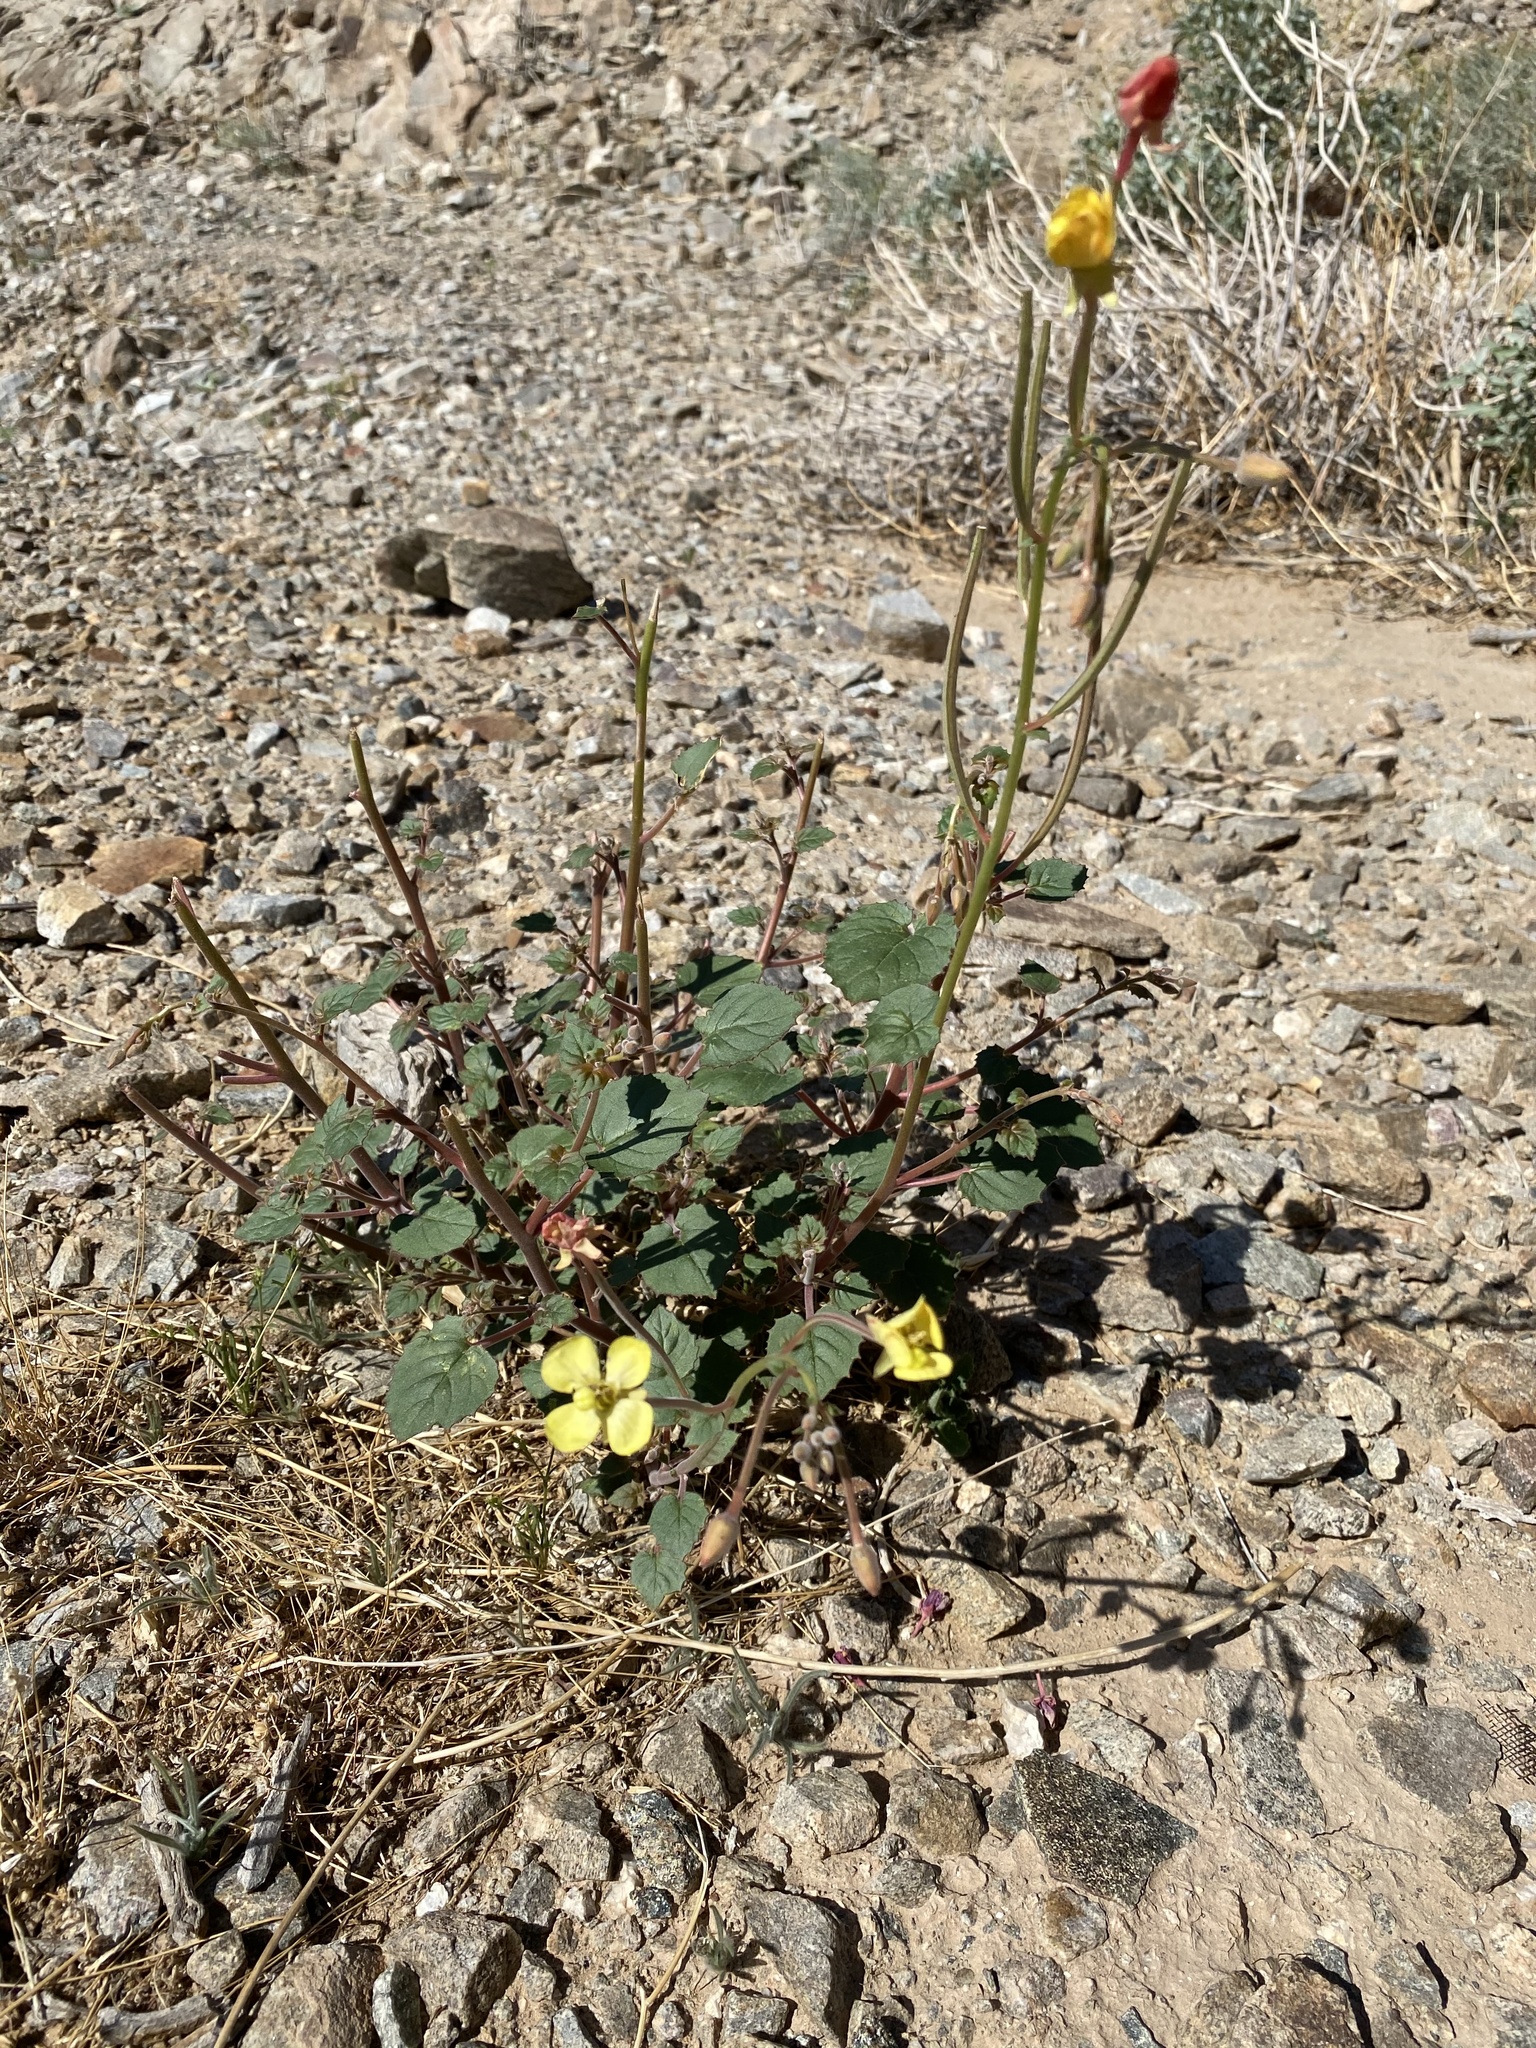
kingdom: Plantae
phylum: Tracheophyta
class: Magnoliopsida
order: Myrtales
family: Onagraceae
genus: Chylismia
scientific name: Chylismia cardiophylla
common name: Heartleaf suncup
